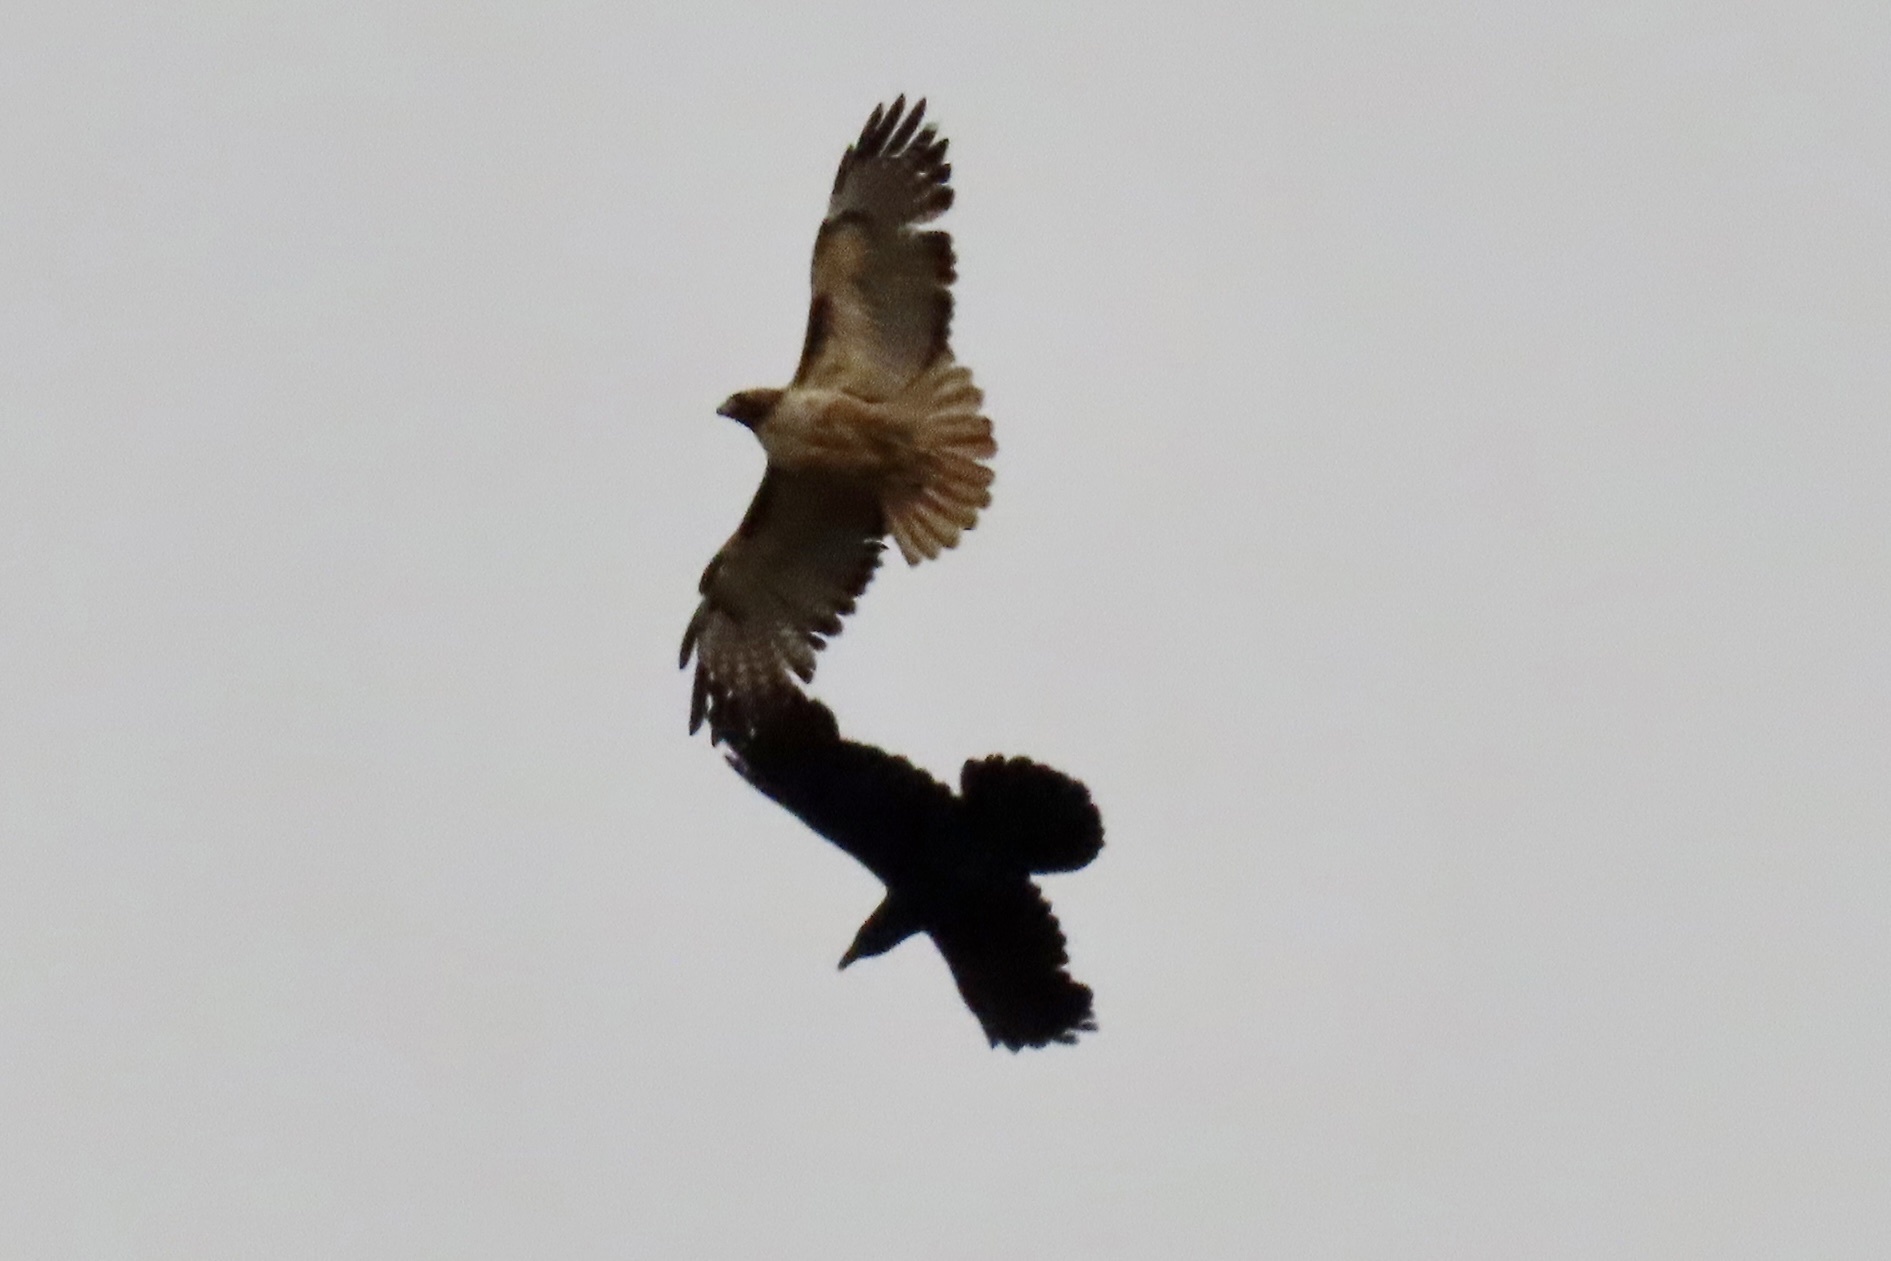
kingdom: Animalia
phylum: Chordata
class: Aves
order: Passeriformes
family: Corvidae
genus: Corvus
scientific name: Corvus corax
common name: Common raven
